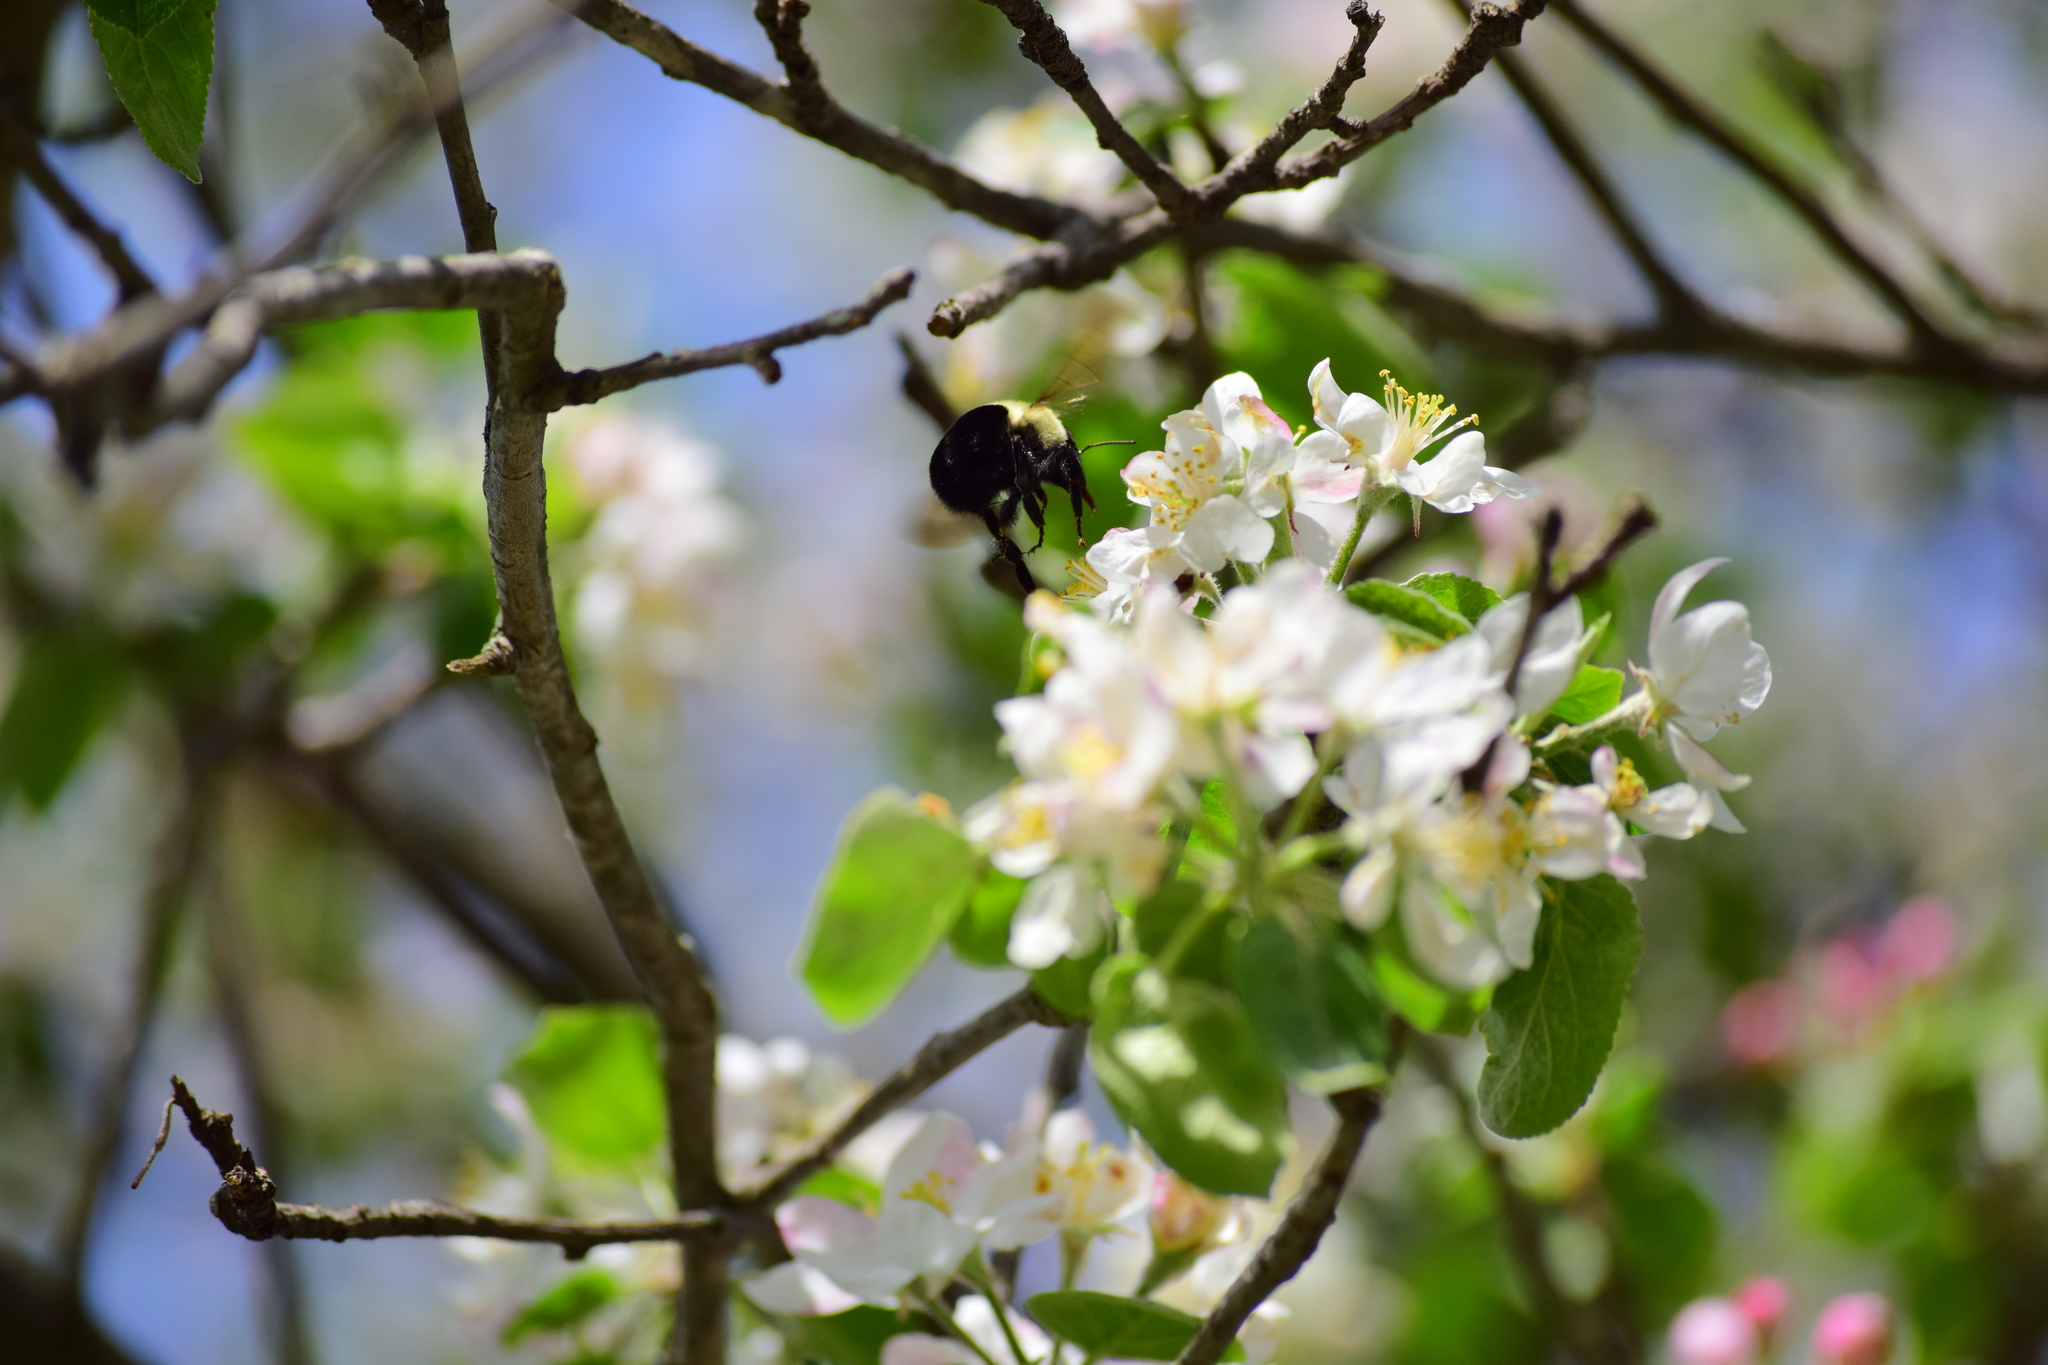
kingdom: Animalia
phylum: Arthropoda
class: Insecta
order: Hymenoptera
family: Apidae
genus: Bombus
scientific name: Bombus impatiens
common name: Common eastern bumble bee
